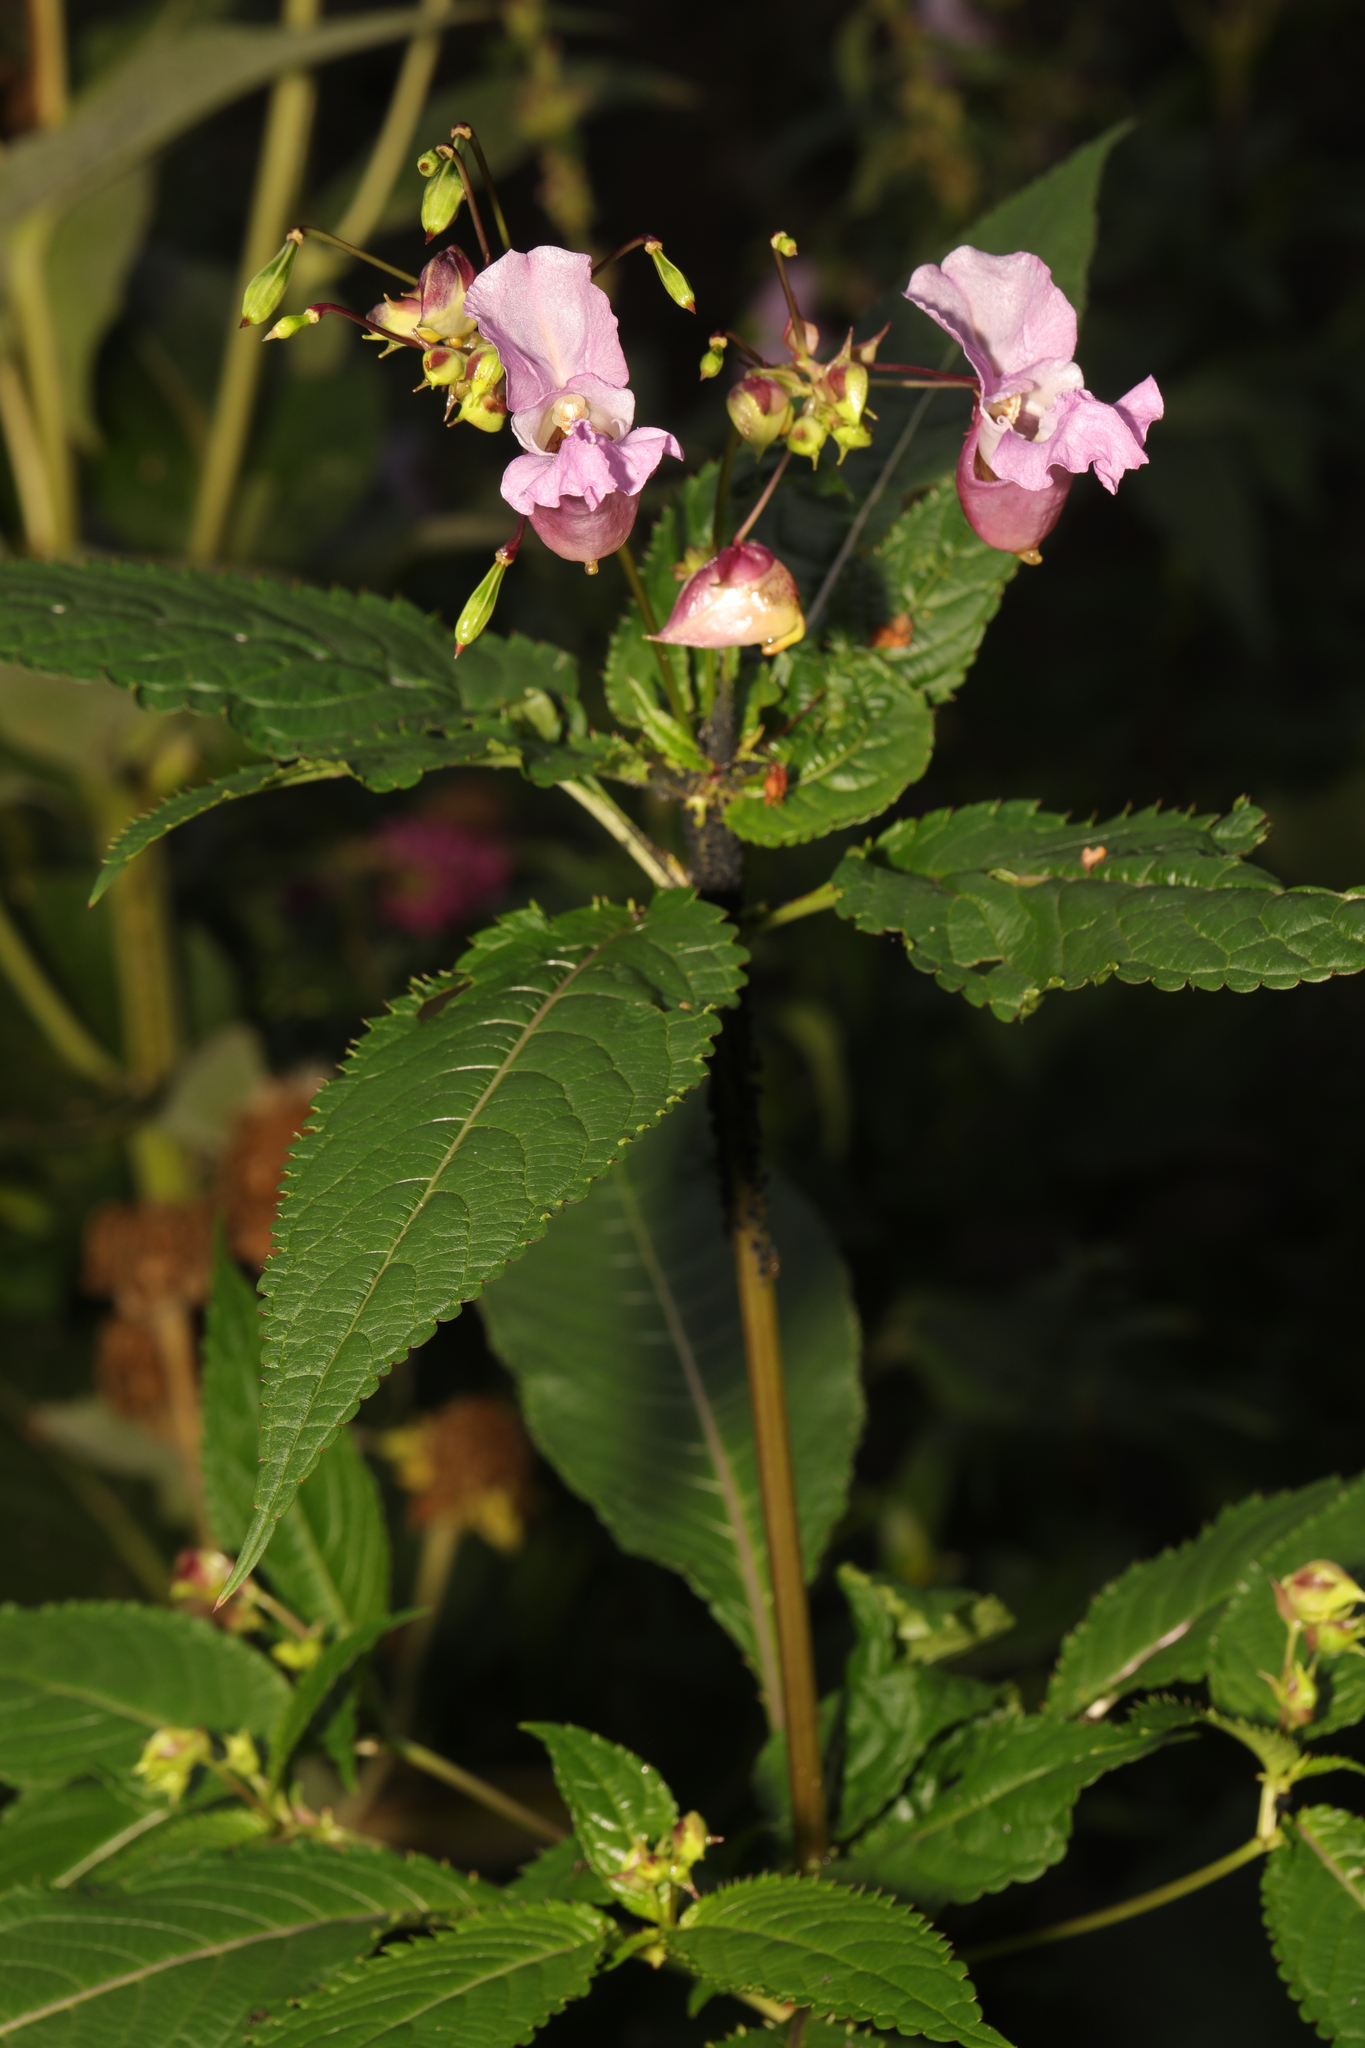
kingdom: Plantae
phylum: Tracheophyta
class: Magnoliopsida
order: Ericales
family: Balsaminaceae
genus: Impatiens
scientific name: Impatiens glandulifera
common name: Himalayan balsam
